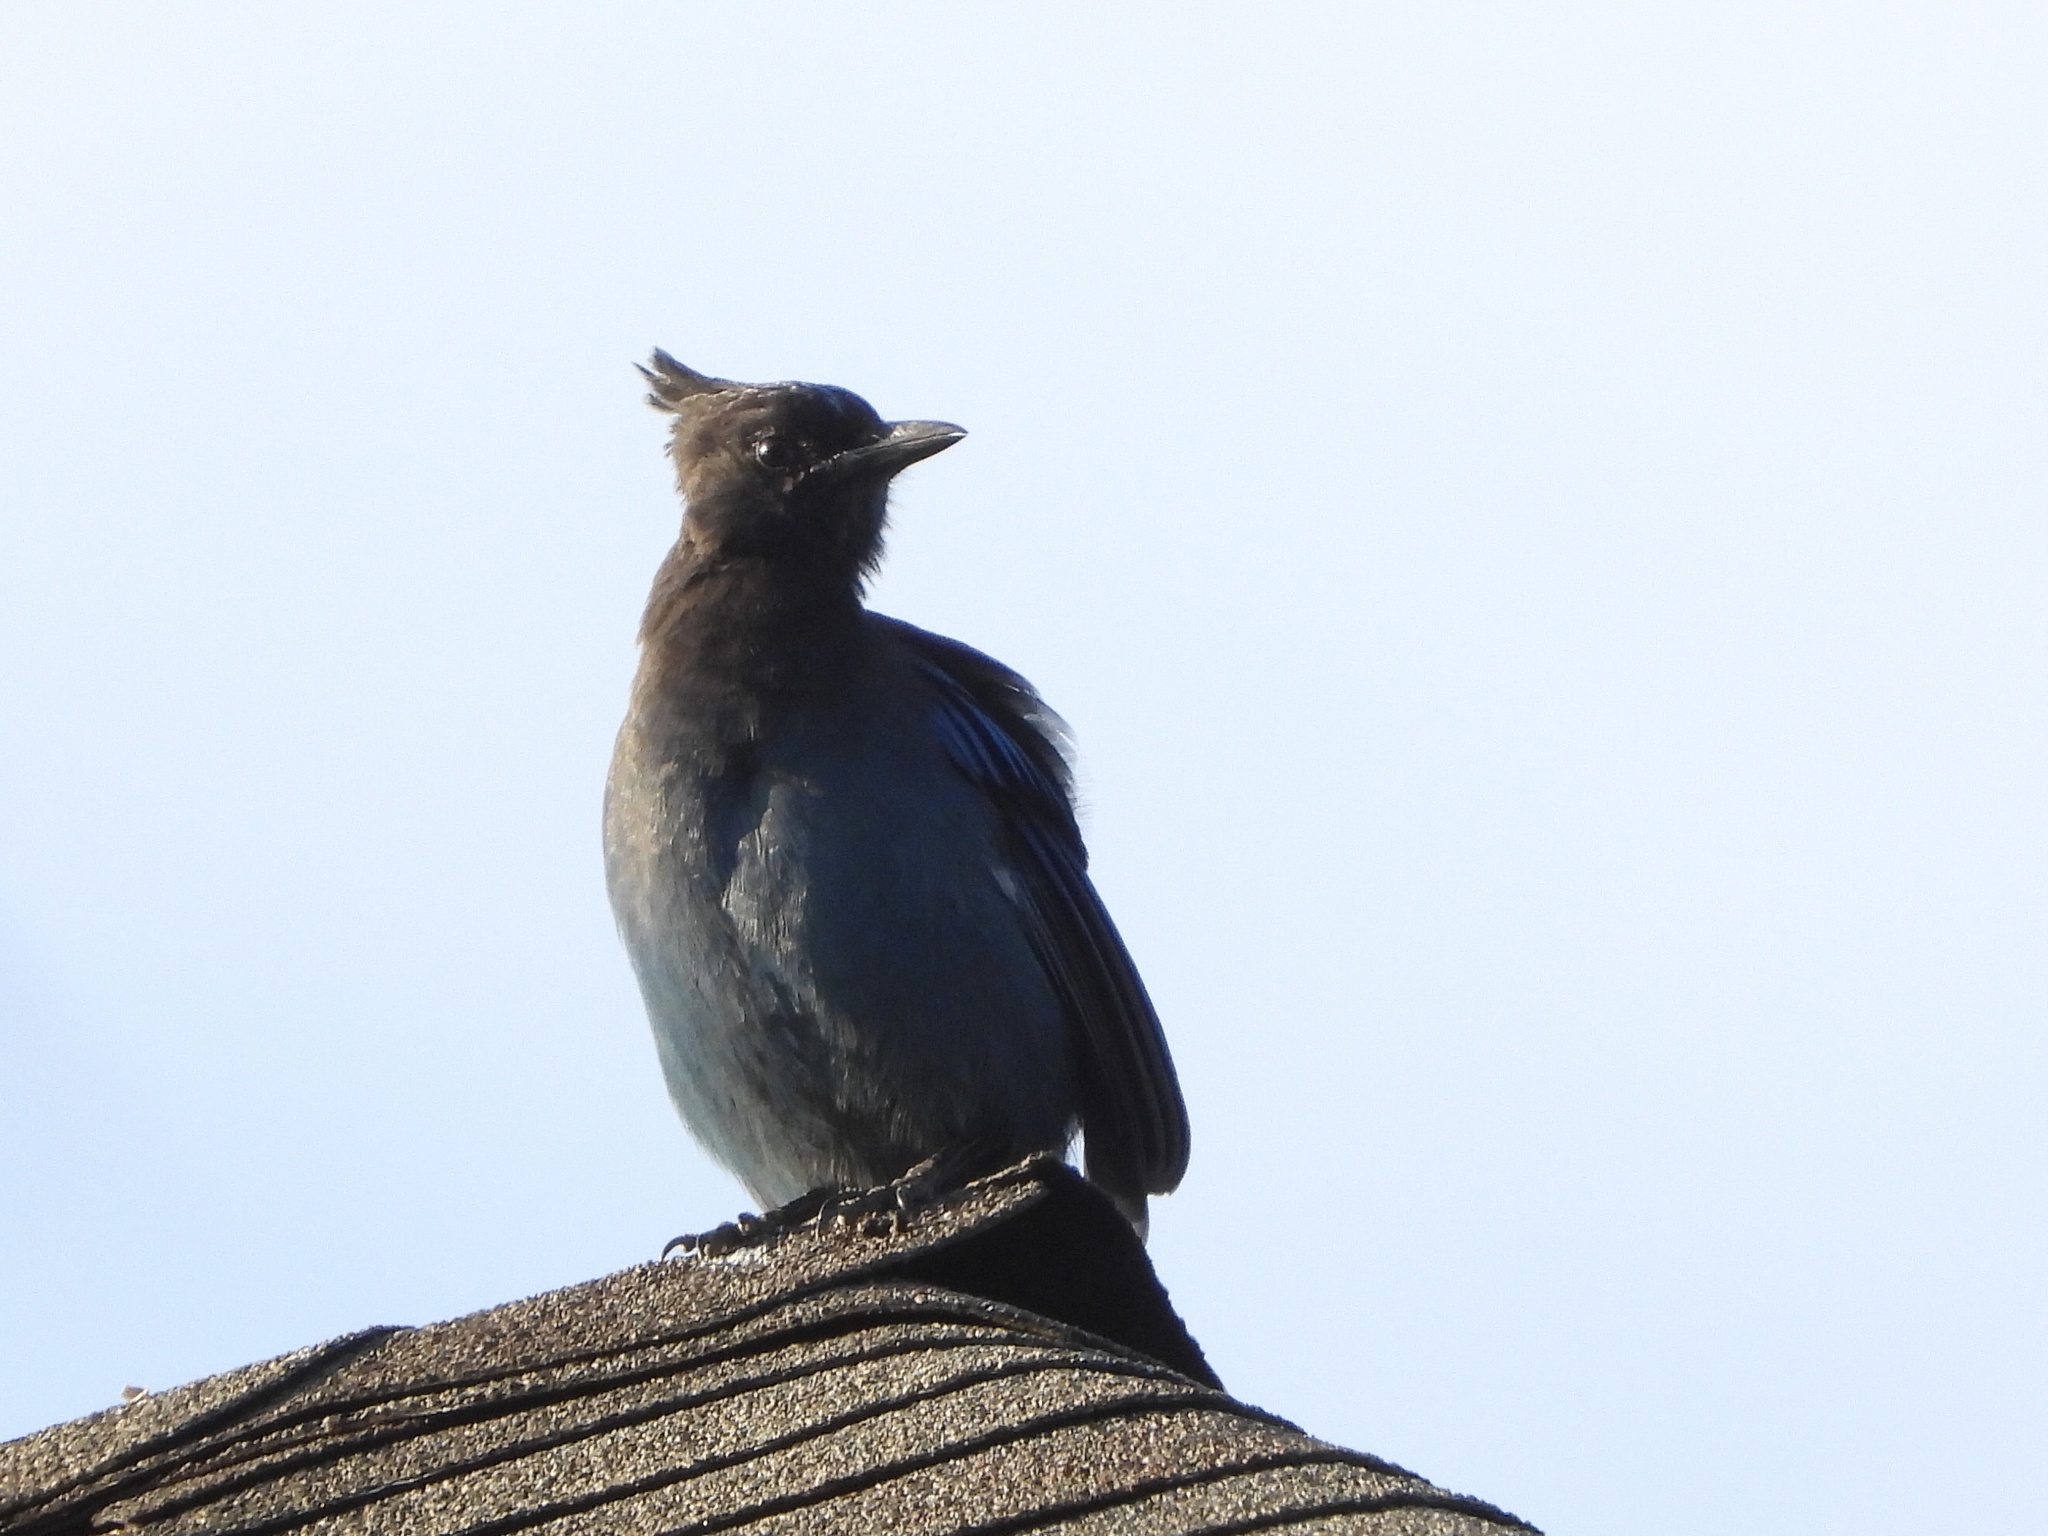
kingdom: Animalia
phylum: Chordata
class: Aves
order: Passeriformes
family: Corvidae
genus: Cyanocitta
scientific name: Cyanocitta stelleri
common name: Steller's jay
